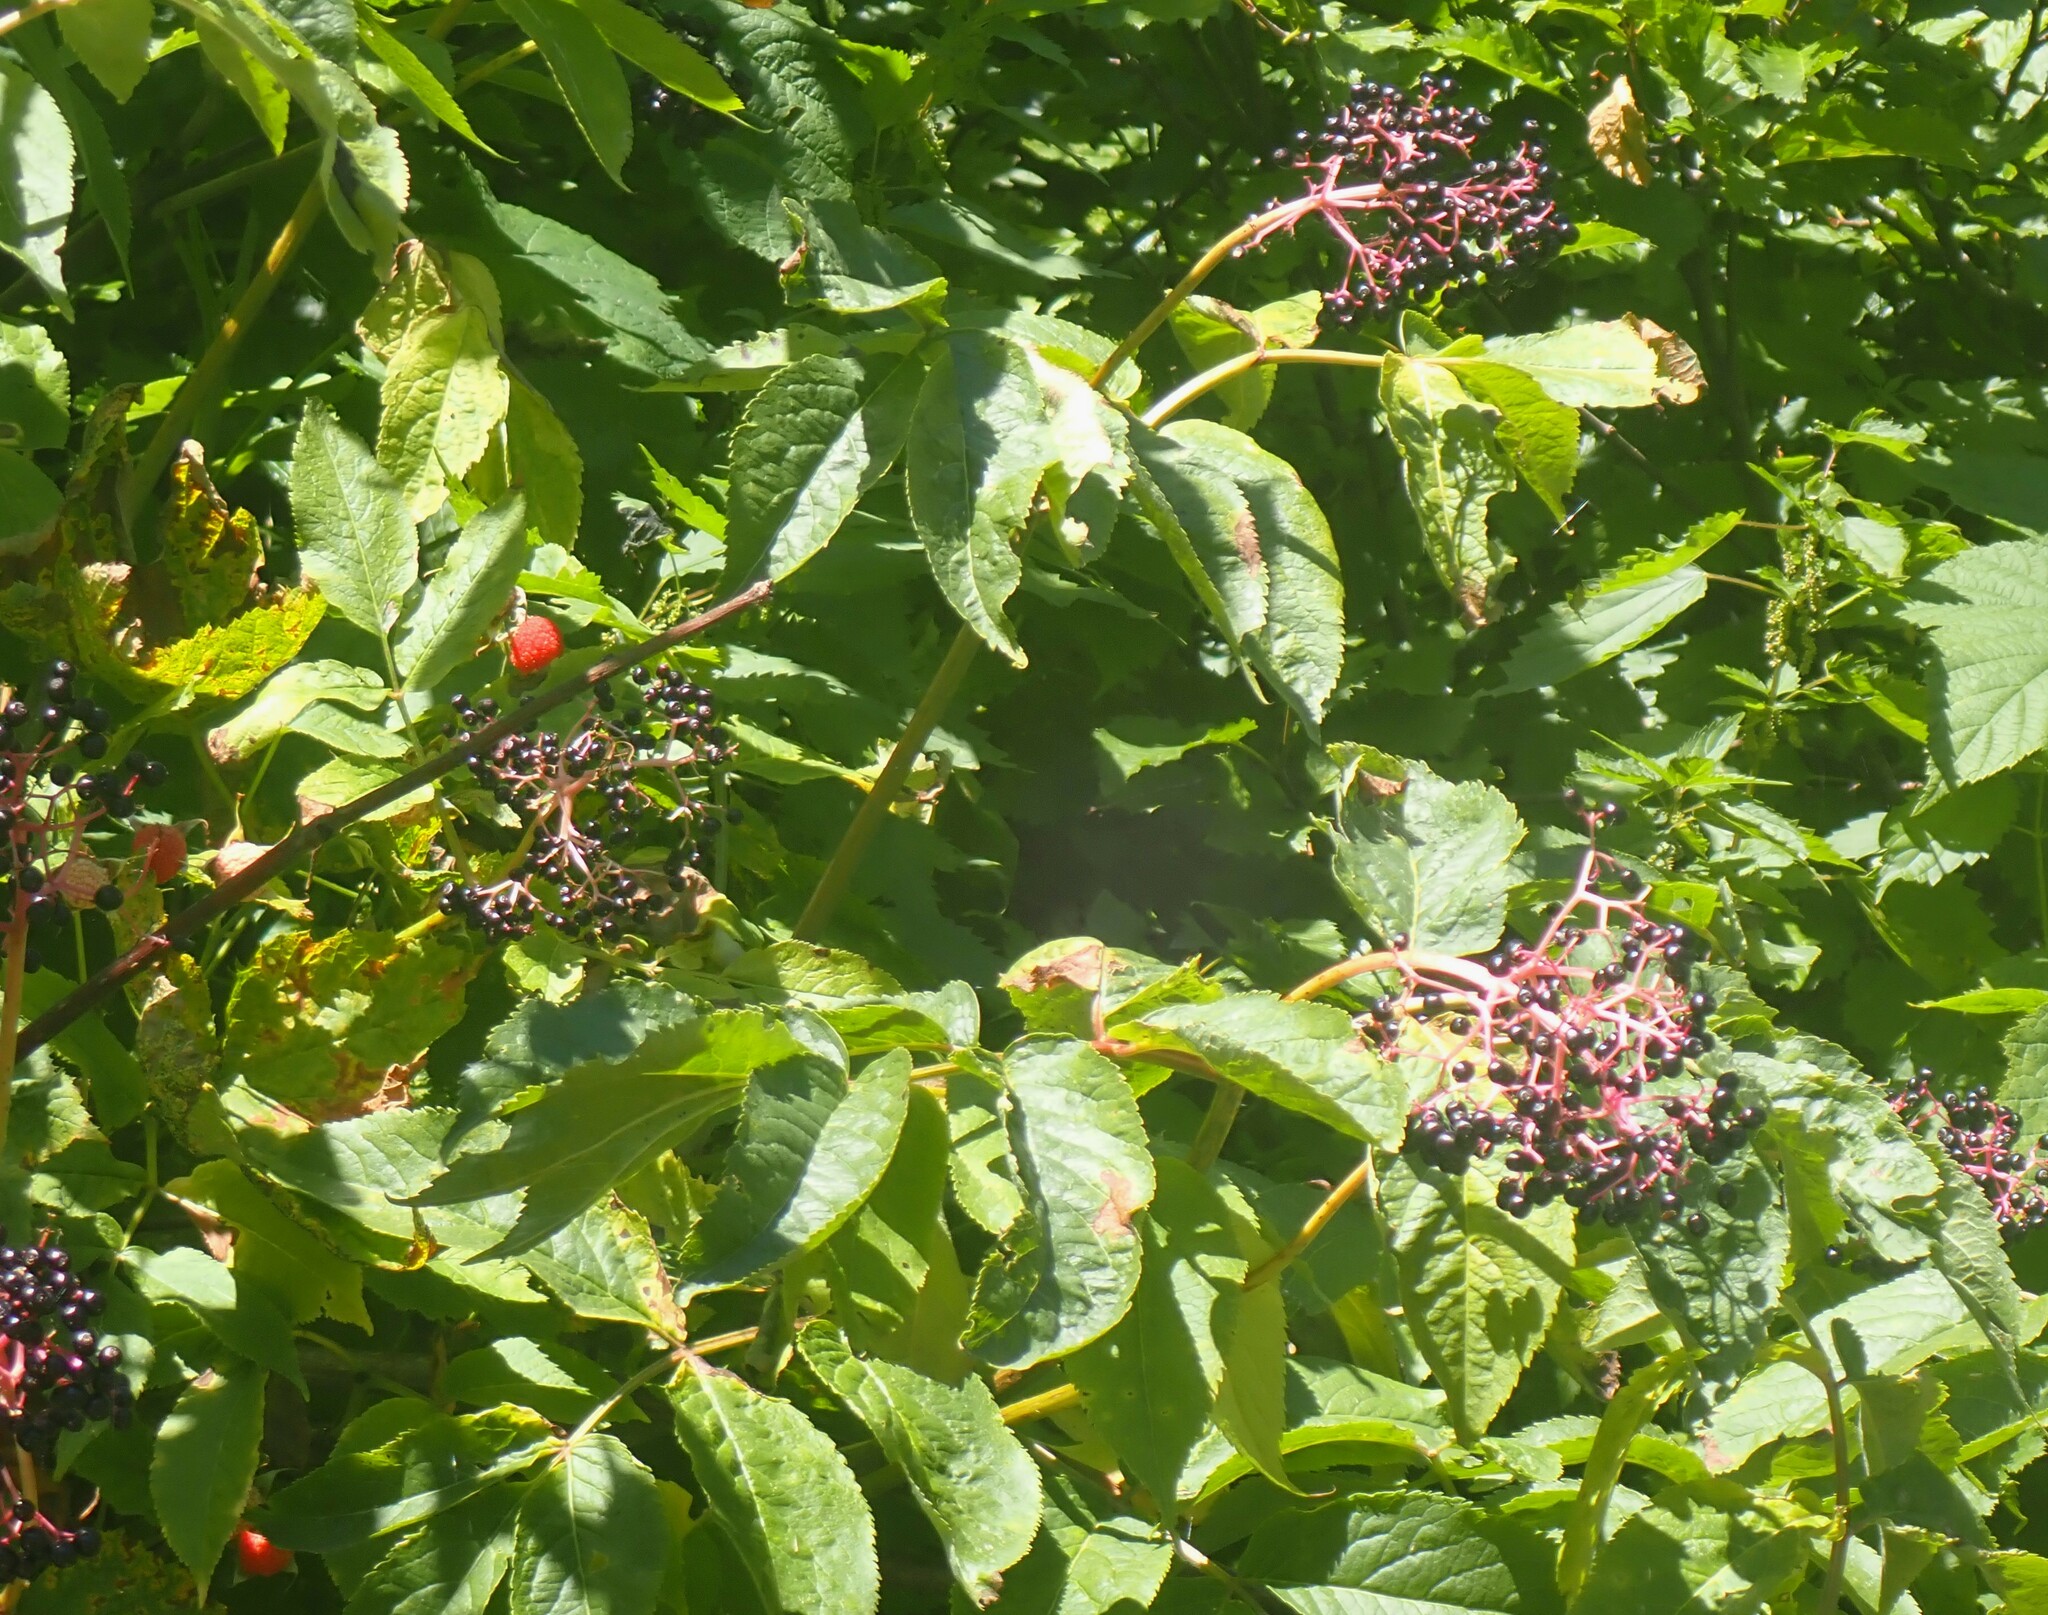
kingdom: Plantae
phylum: Tracheophyta
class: Magnoliopsida
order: Dipsacales
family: Viburnaceae
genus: Sambucus
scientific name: Sambucus racemosa
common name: Red-berried elder
